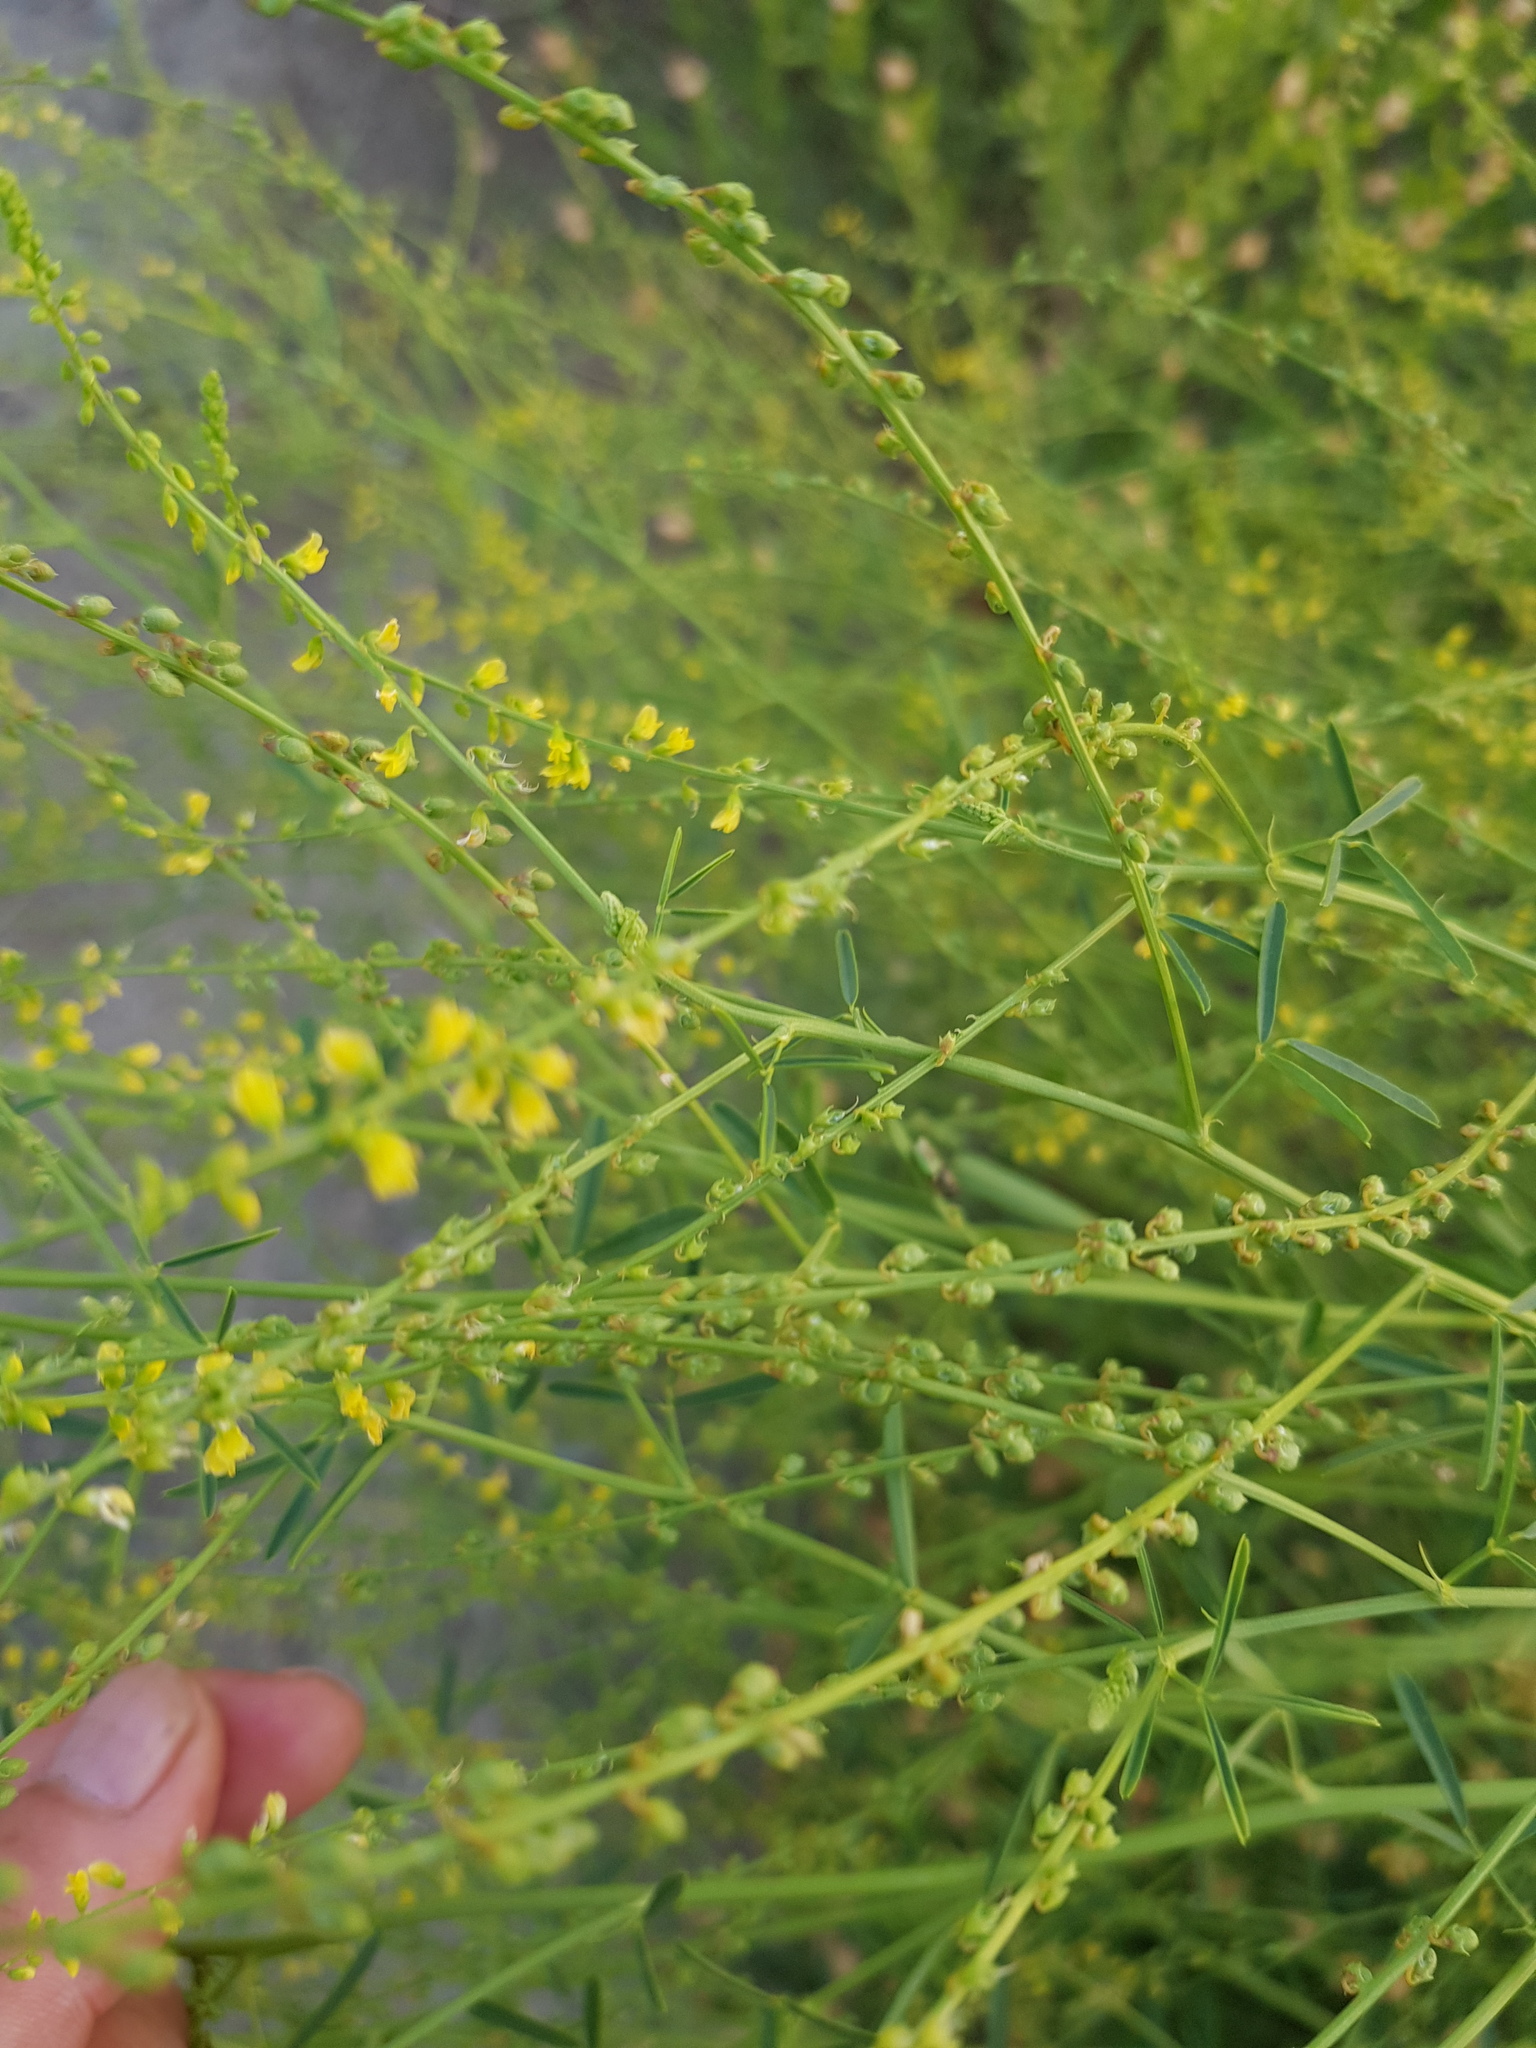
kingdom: Plantae
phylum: Tracheophyta
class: Magnoliopsida
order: Fabales
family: Fabaceae
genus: Melilotus
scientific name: Melilotus suaveolens
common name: Daghestan sweet-clover
